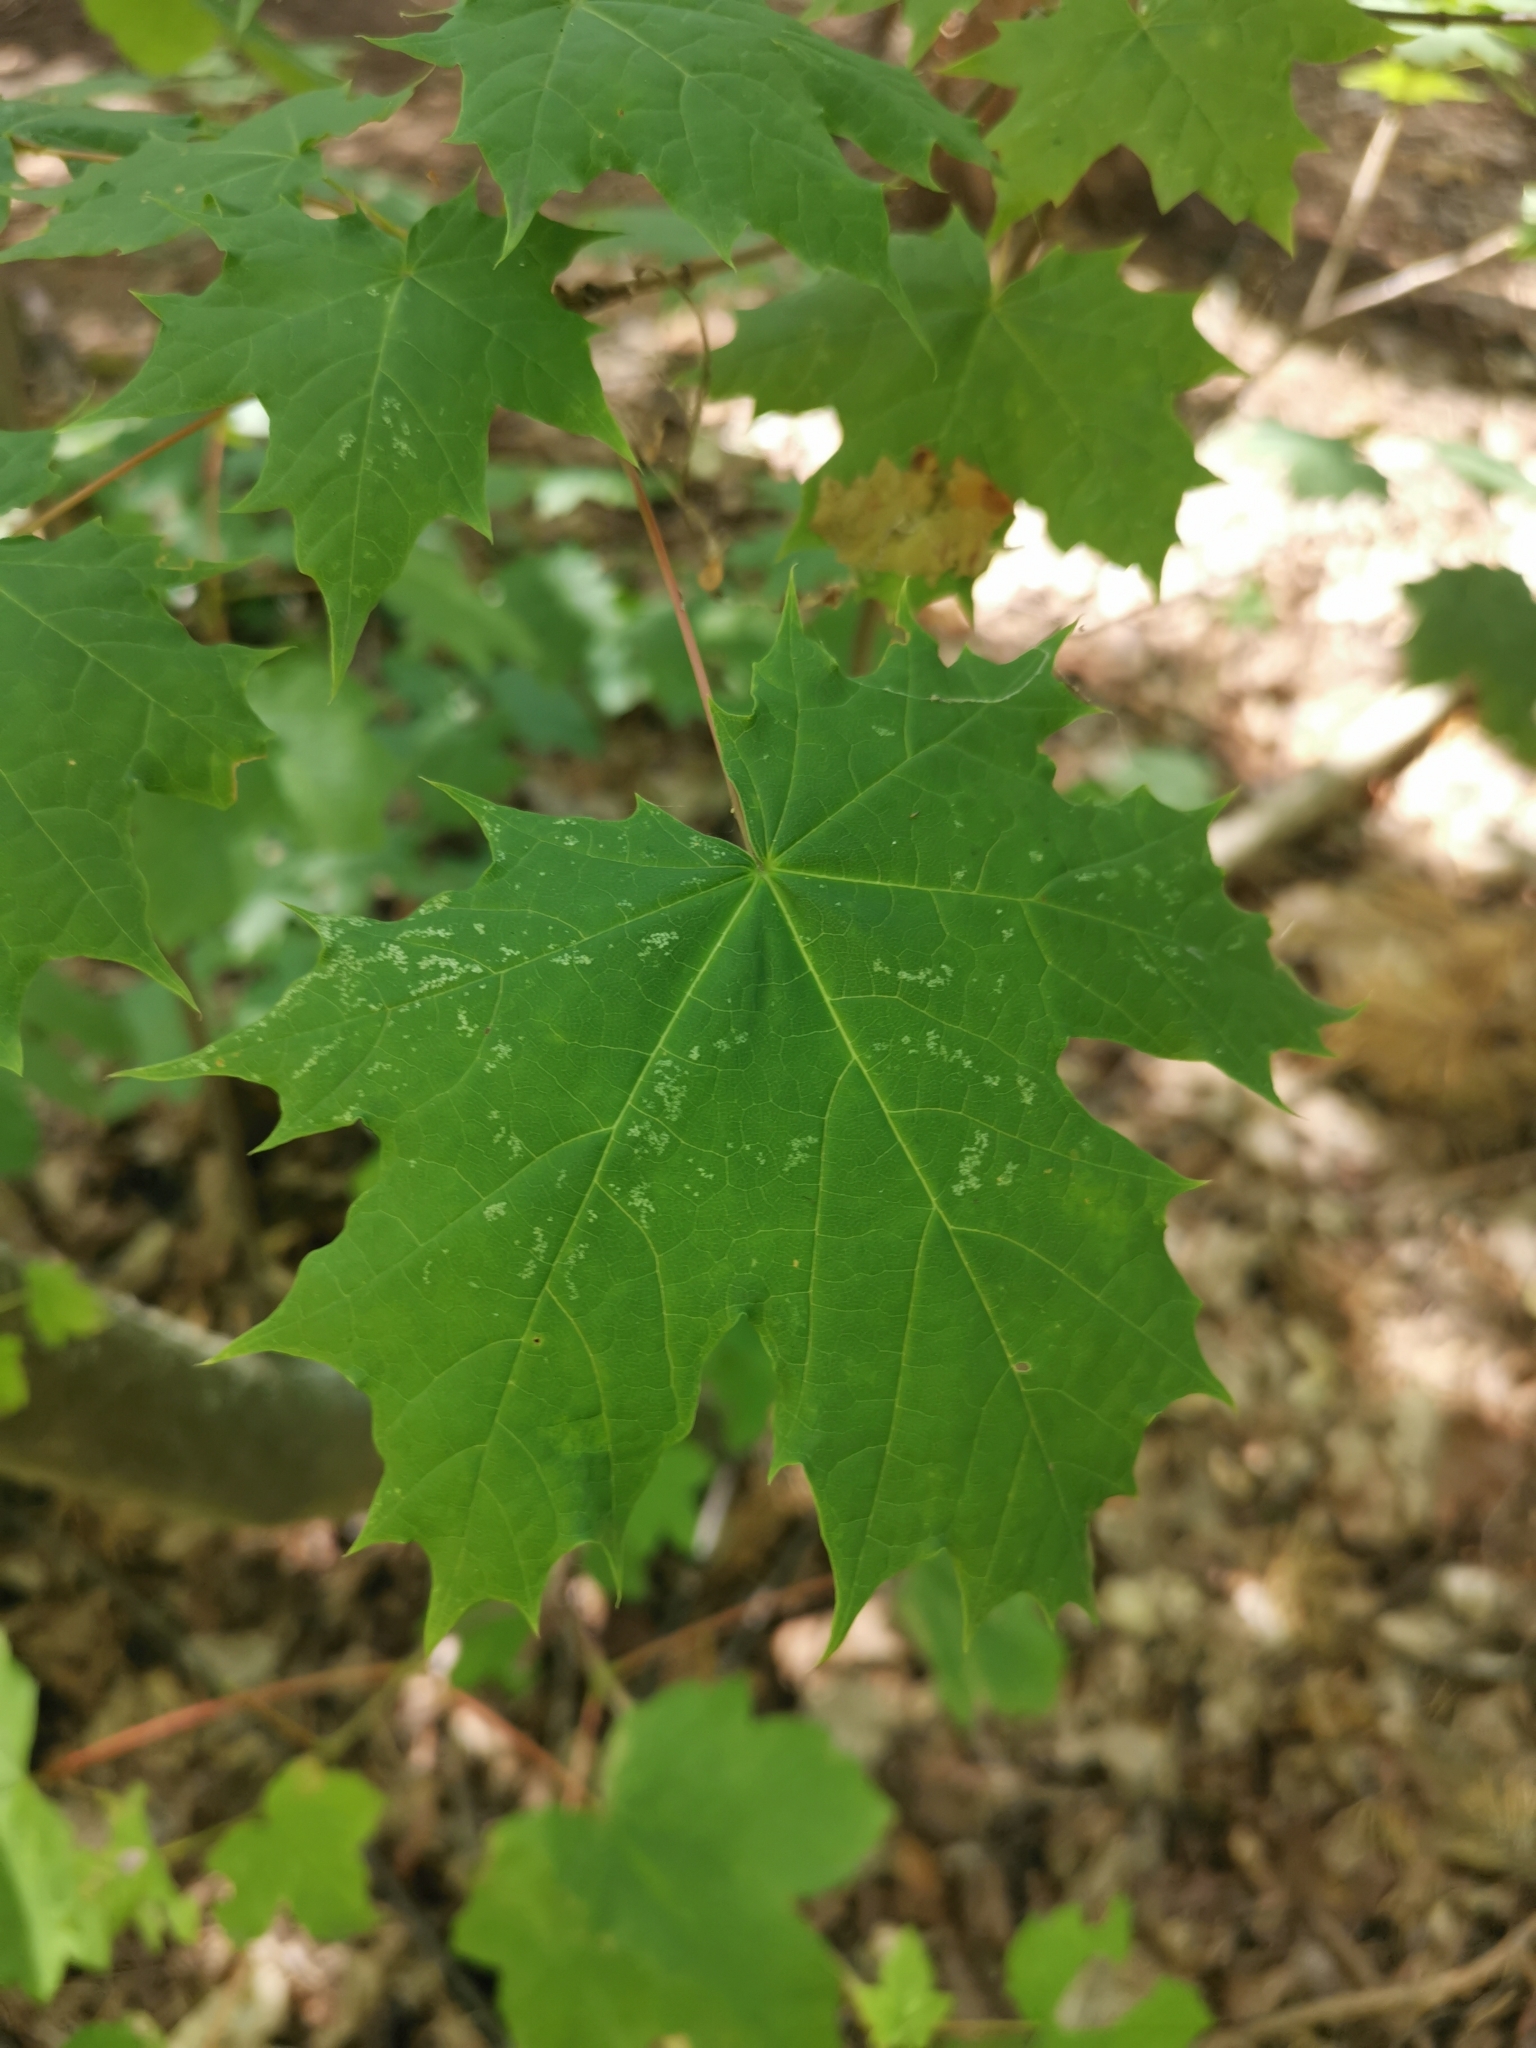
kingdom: Plantae
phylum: Tracheophyta
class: Magnoliopsida
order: Sapindales
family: Sapindaceae
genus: Acer
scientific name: Acer platanoides
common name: Norway maple
